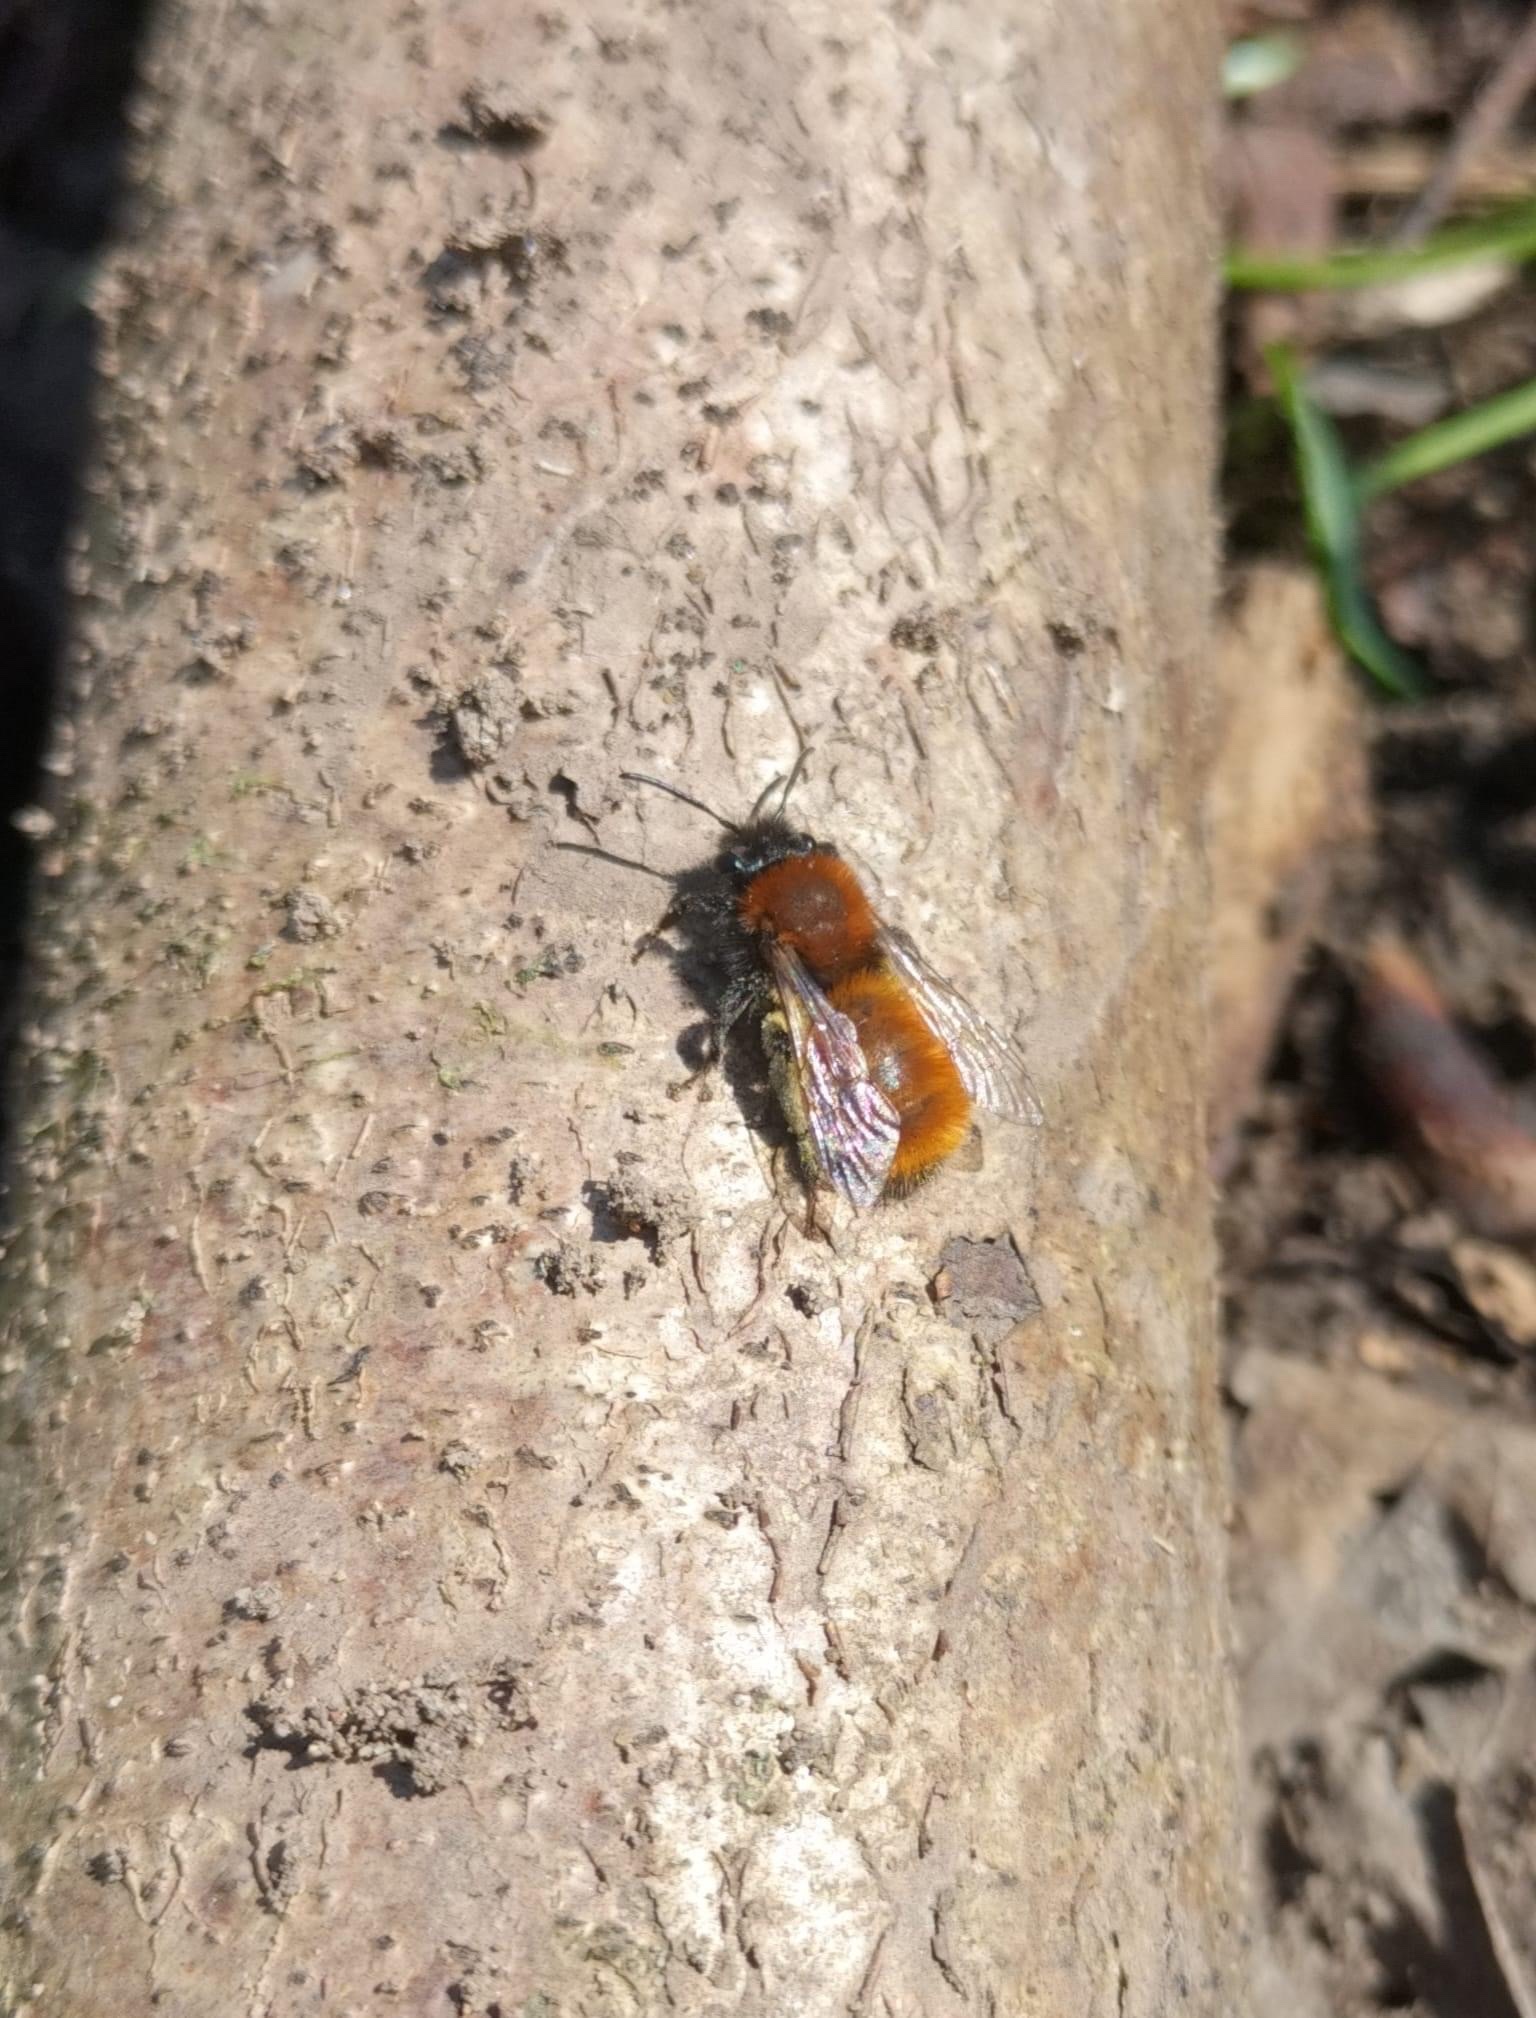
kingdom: Animalia
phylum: Arthropoda
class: Insecta
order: Hymenoptera
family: Andrenidae
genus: Andrena
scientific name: Andrena fulva
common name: Tawny mining bee
